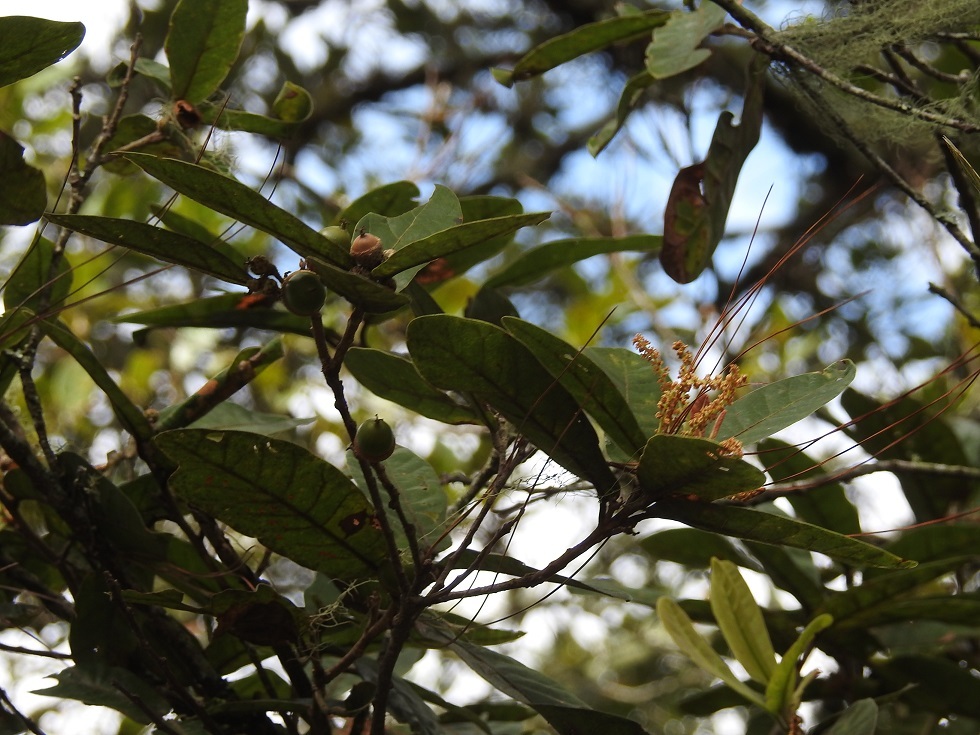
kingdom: Plantae
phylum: Tracheophyta
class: Magnoliopsida
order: Fagales
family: Fagaceae
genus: Quercus
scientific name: Quercus elliptica
